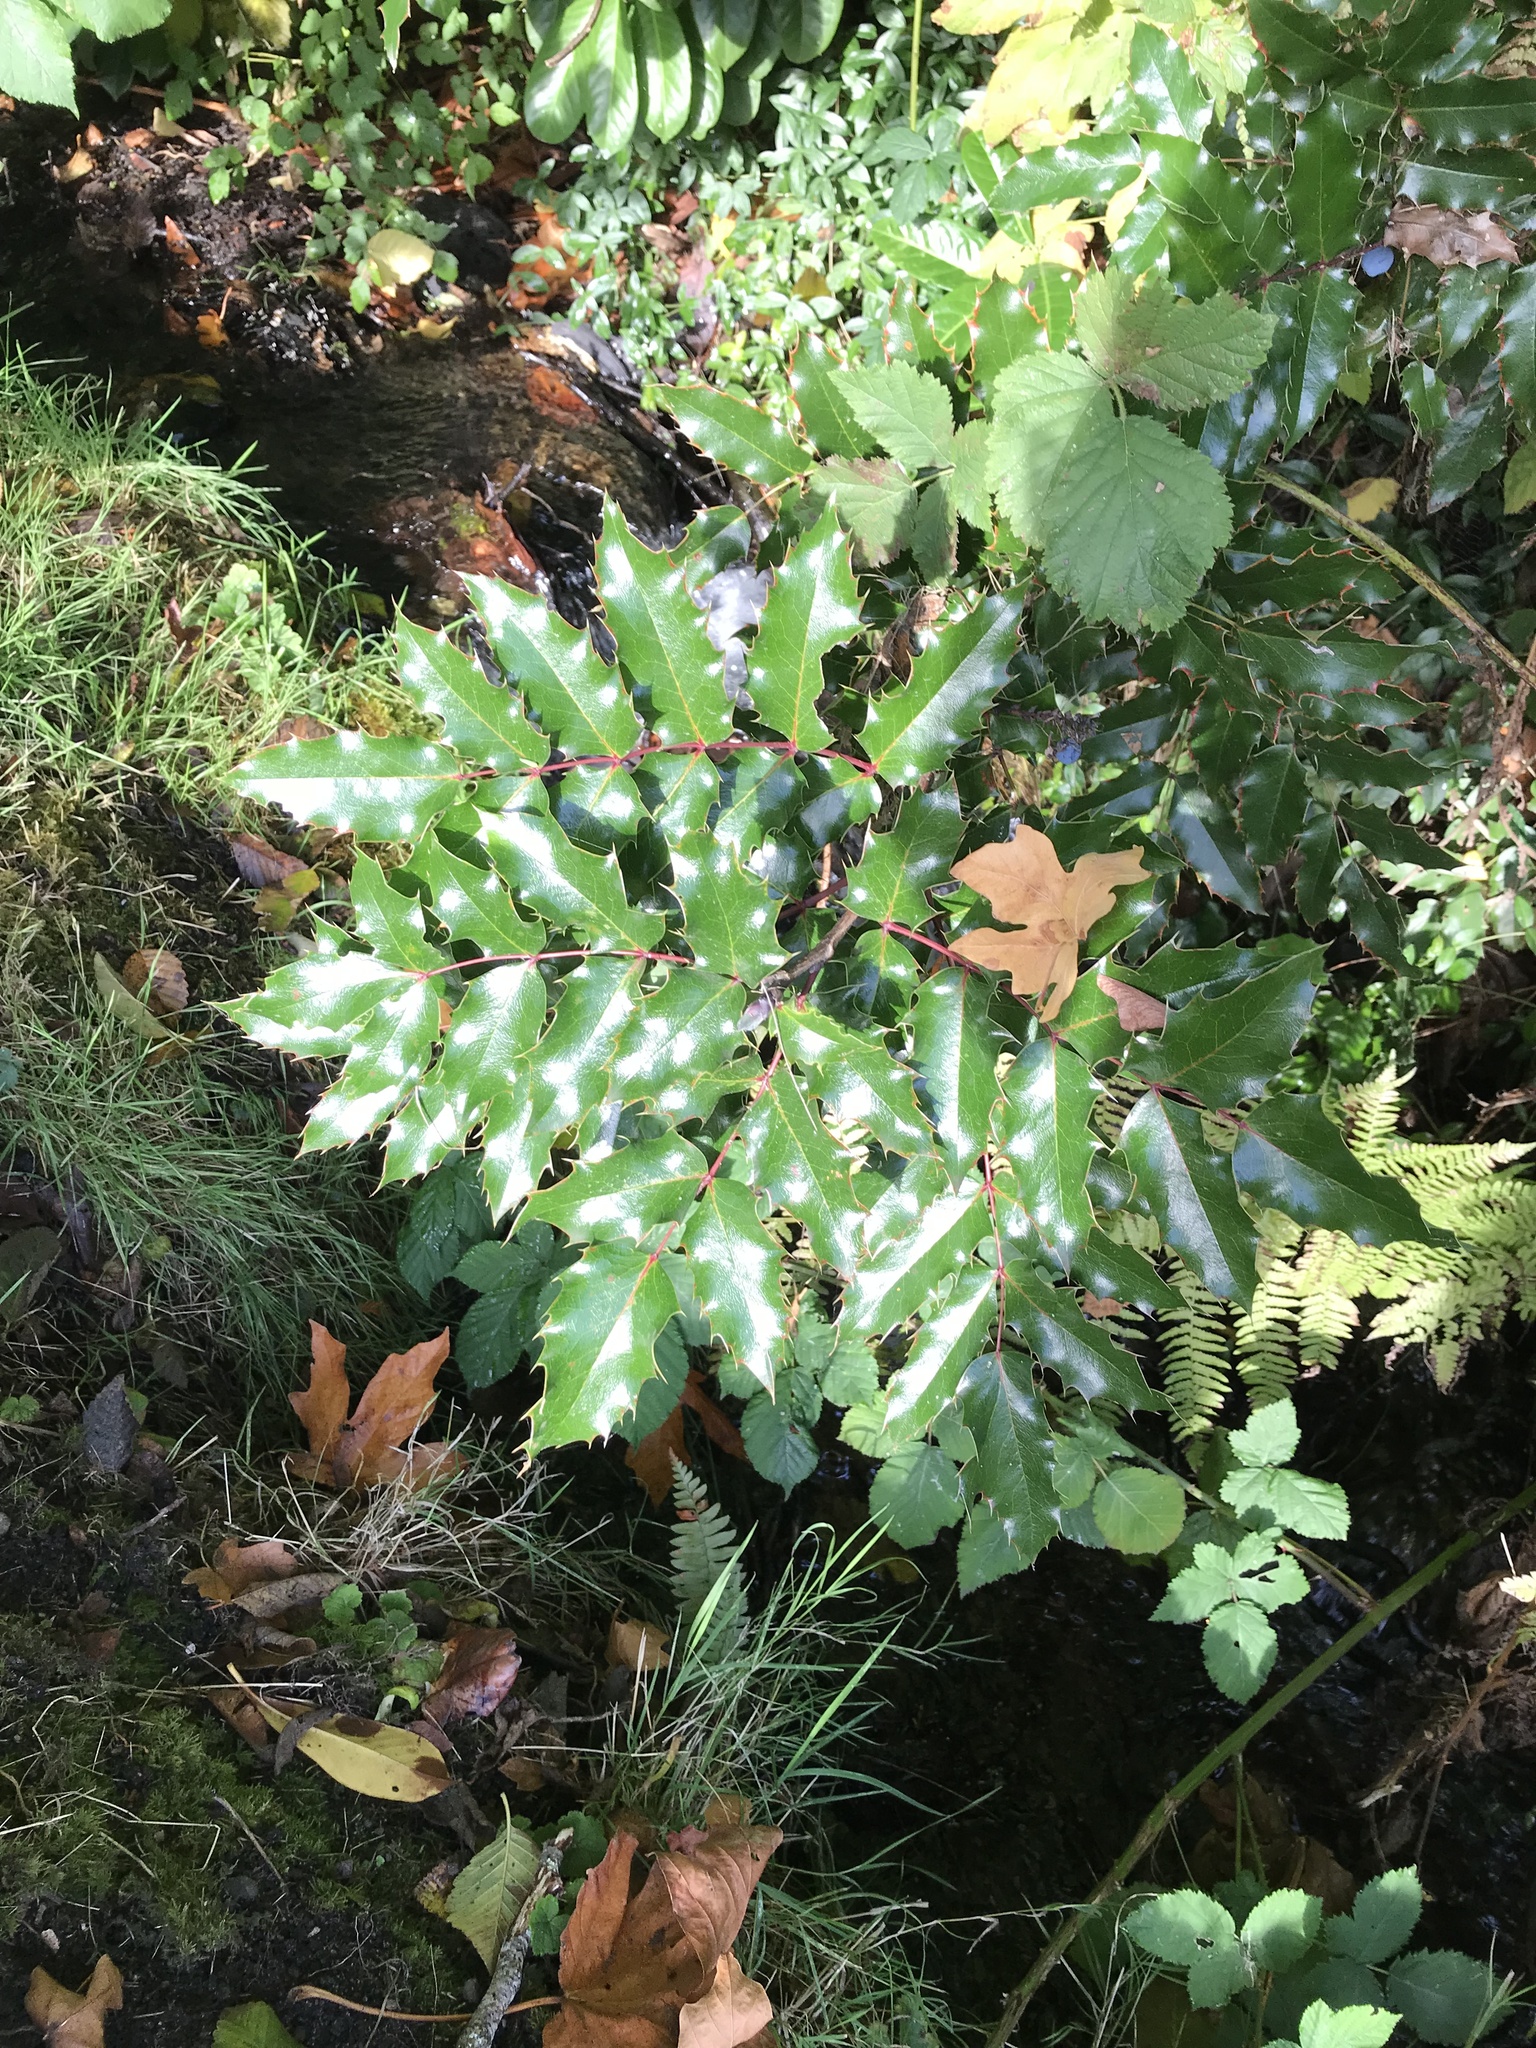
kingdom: Plantae
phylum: Tracheophyta
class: Magnoliopsida
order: Ranunculales
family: Berberidaceae
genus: Mahonia
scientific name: Mahonia aquifolium
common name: Oregon-grape
